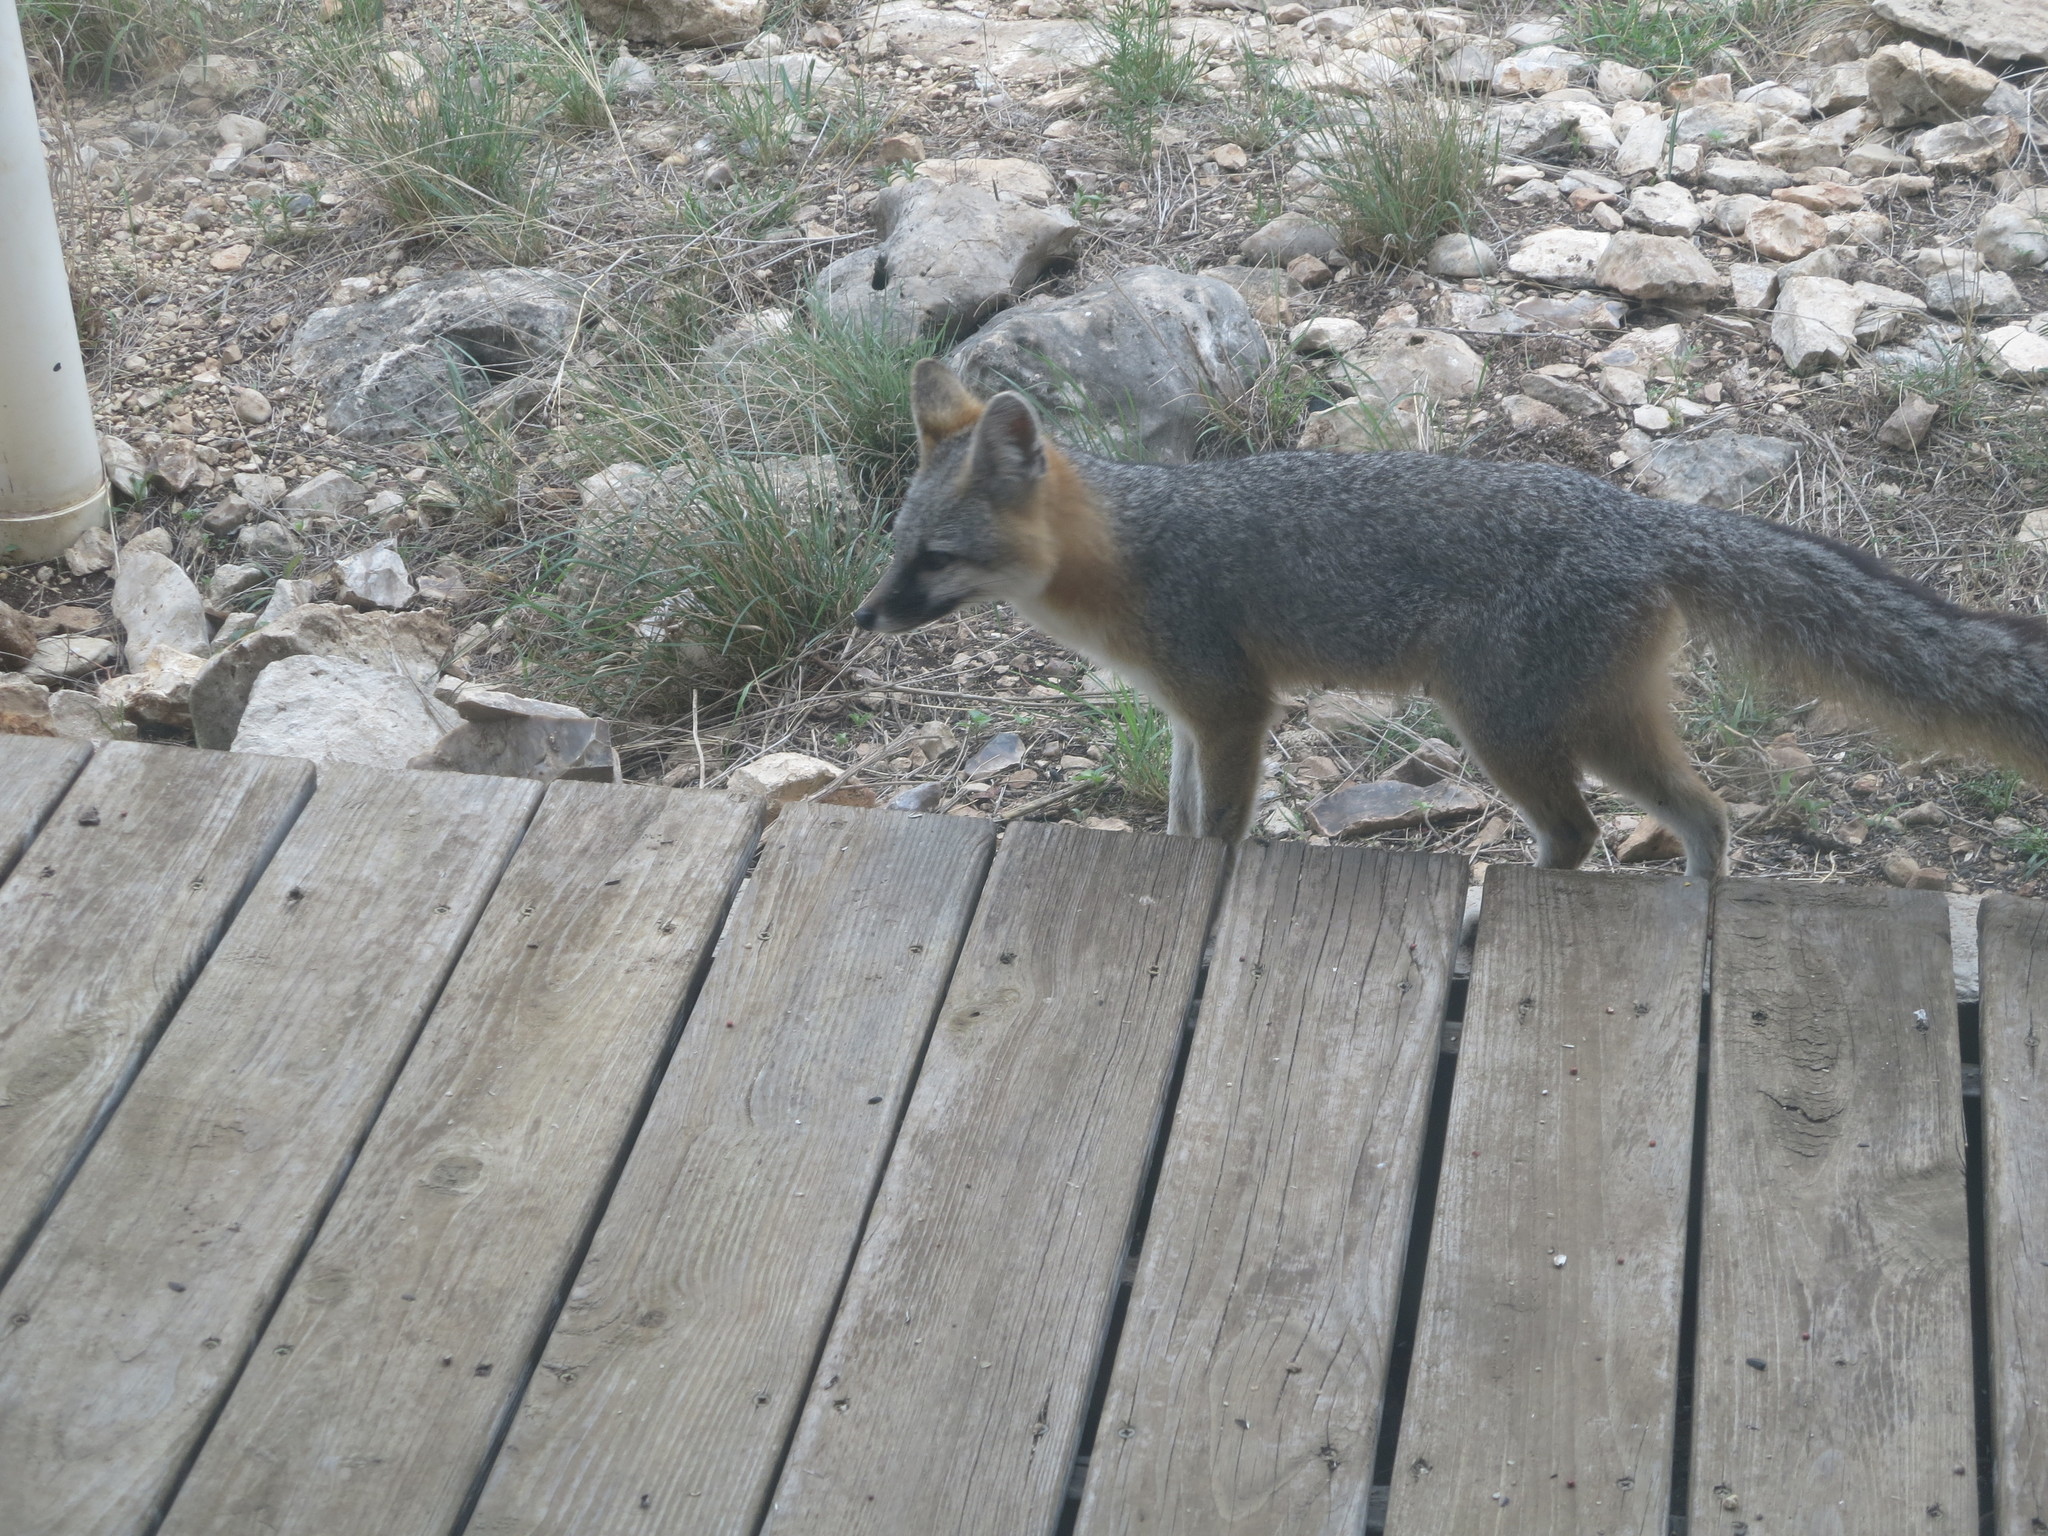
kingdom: Animalia
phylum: Chordata
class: Mammalia
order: Carnivora
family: Canidae
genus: Urocyon
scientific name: Urocyon cinereoargenteus
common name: Gray fox
